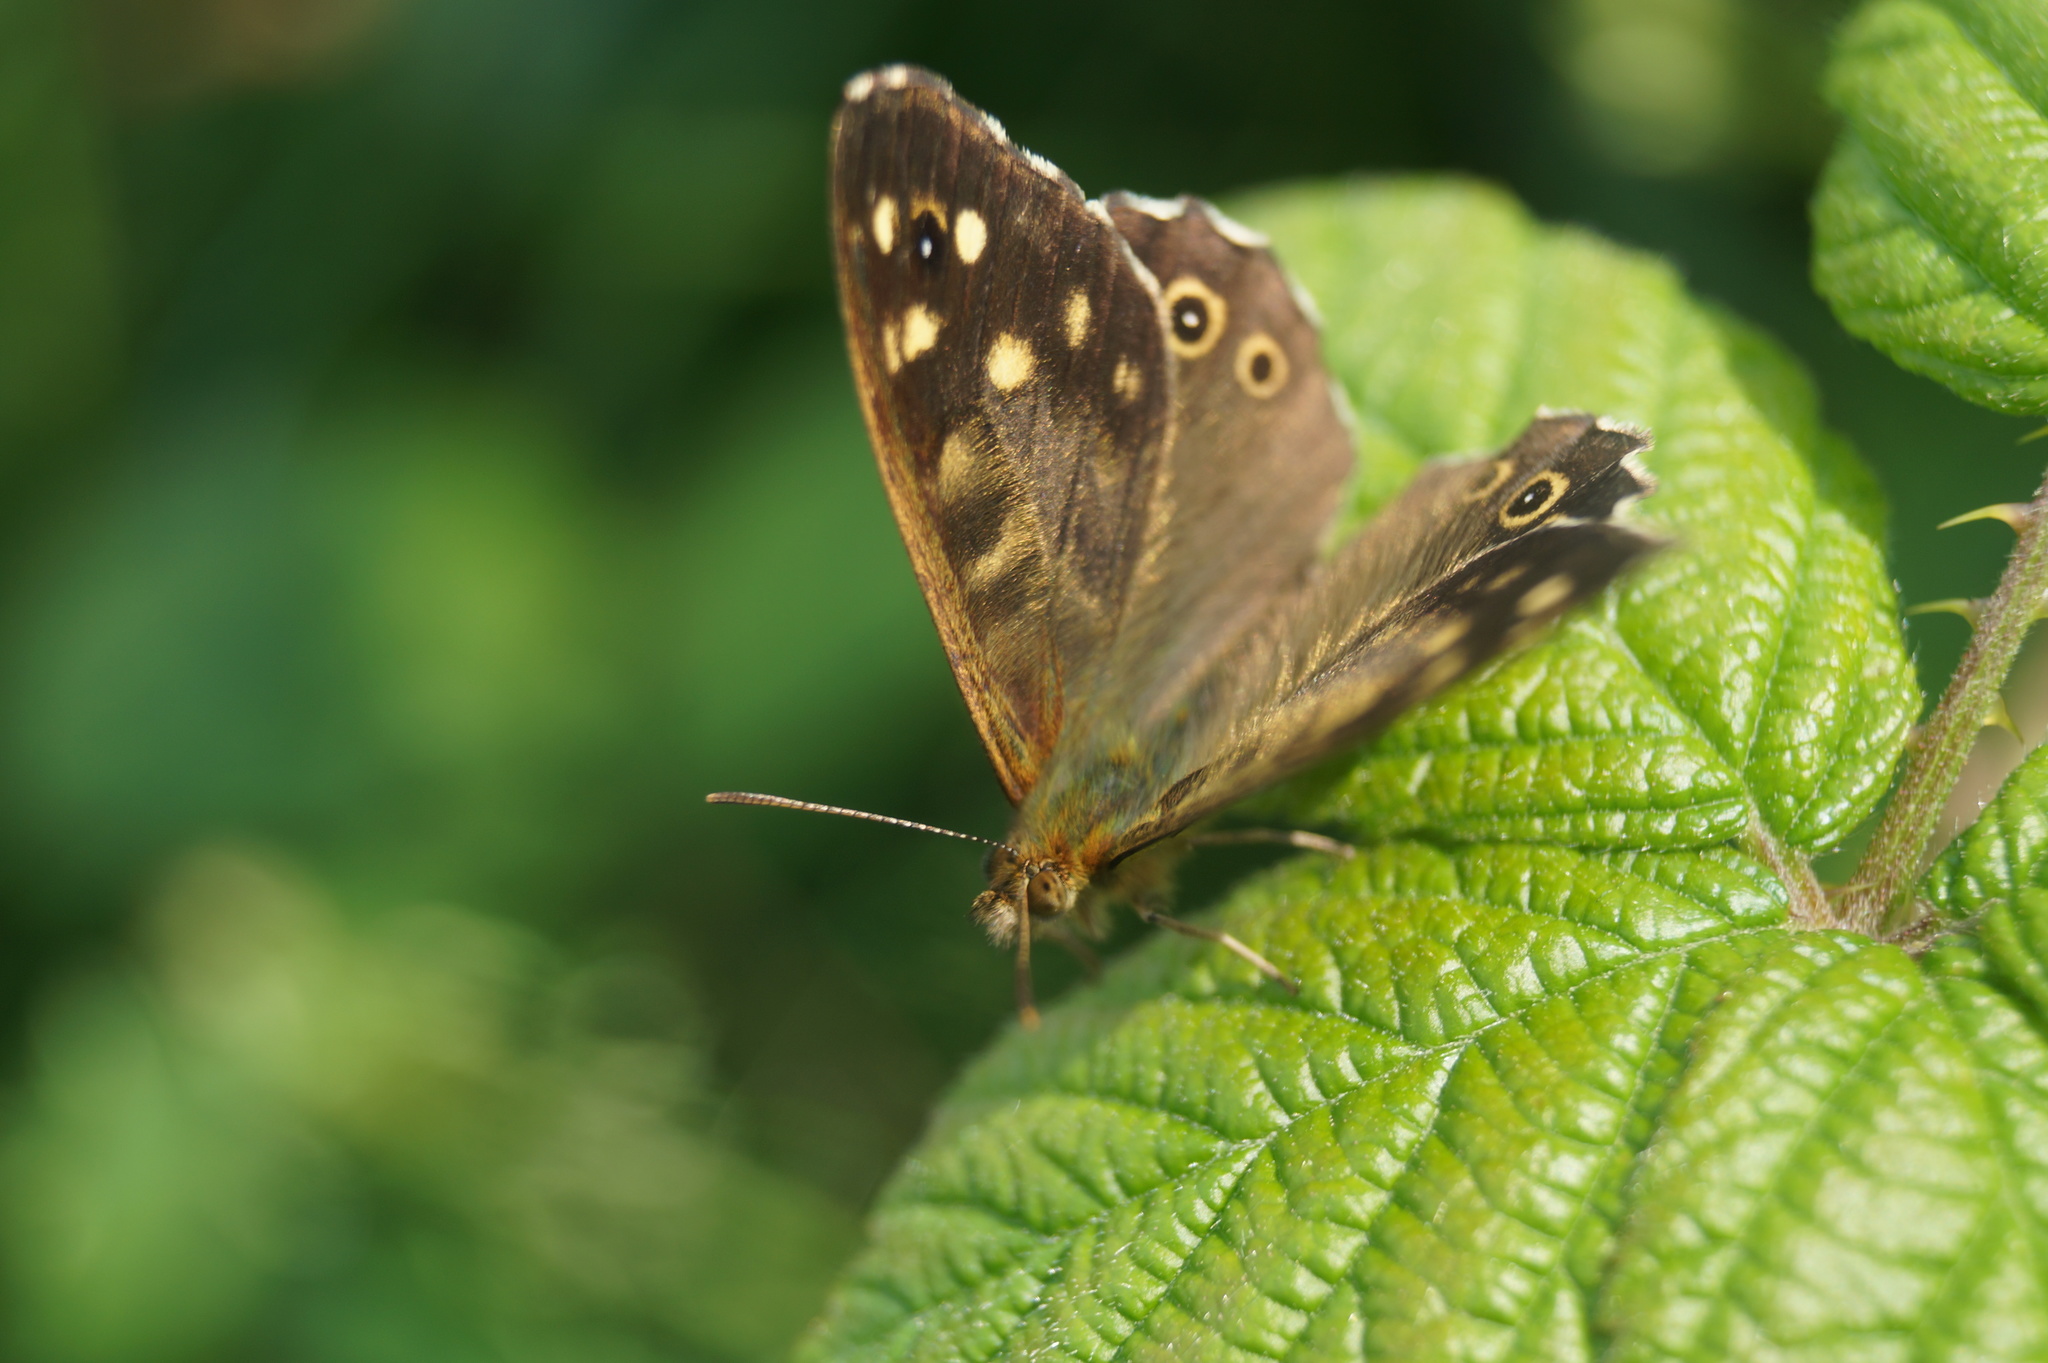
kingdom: Animalia
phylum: Arthropoda
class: Insecta
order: Lepidoptera
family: Nymphalidae
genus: Pararge
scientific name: Pararge aegeria
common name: Speckled wood
